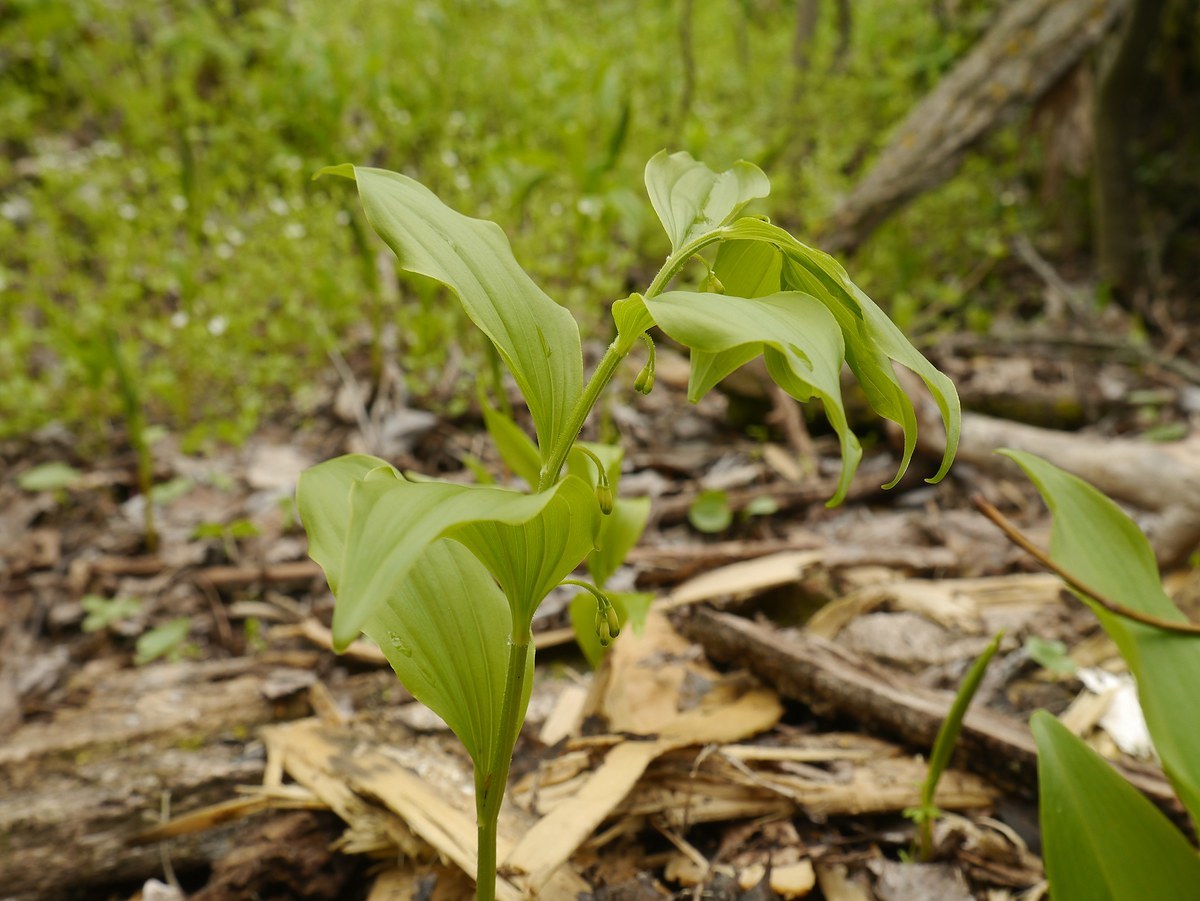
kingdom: Plantae
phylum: Tracheophyta
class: Liliopsida
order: Asparagales
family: Asparagaceae
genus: Polygonatum
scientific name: Polygonatum latifolium
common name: Broadleaf solomon's seal
